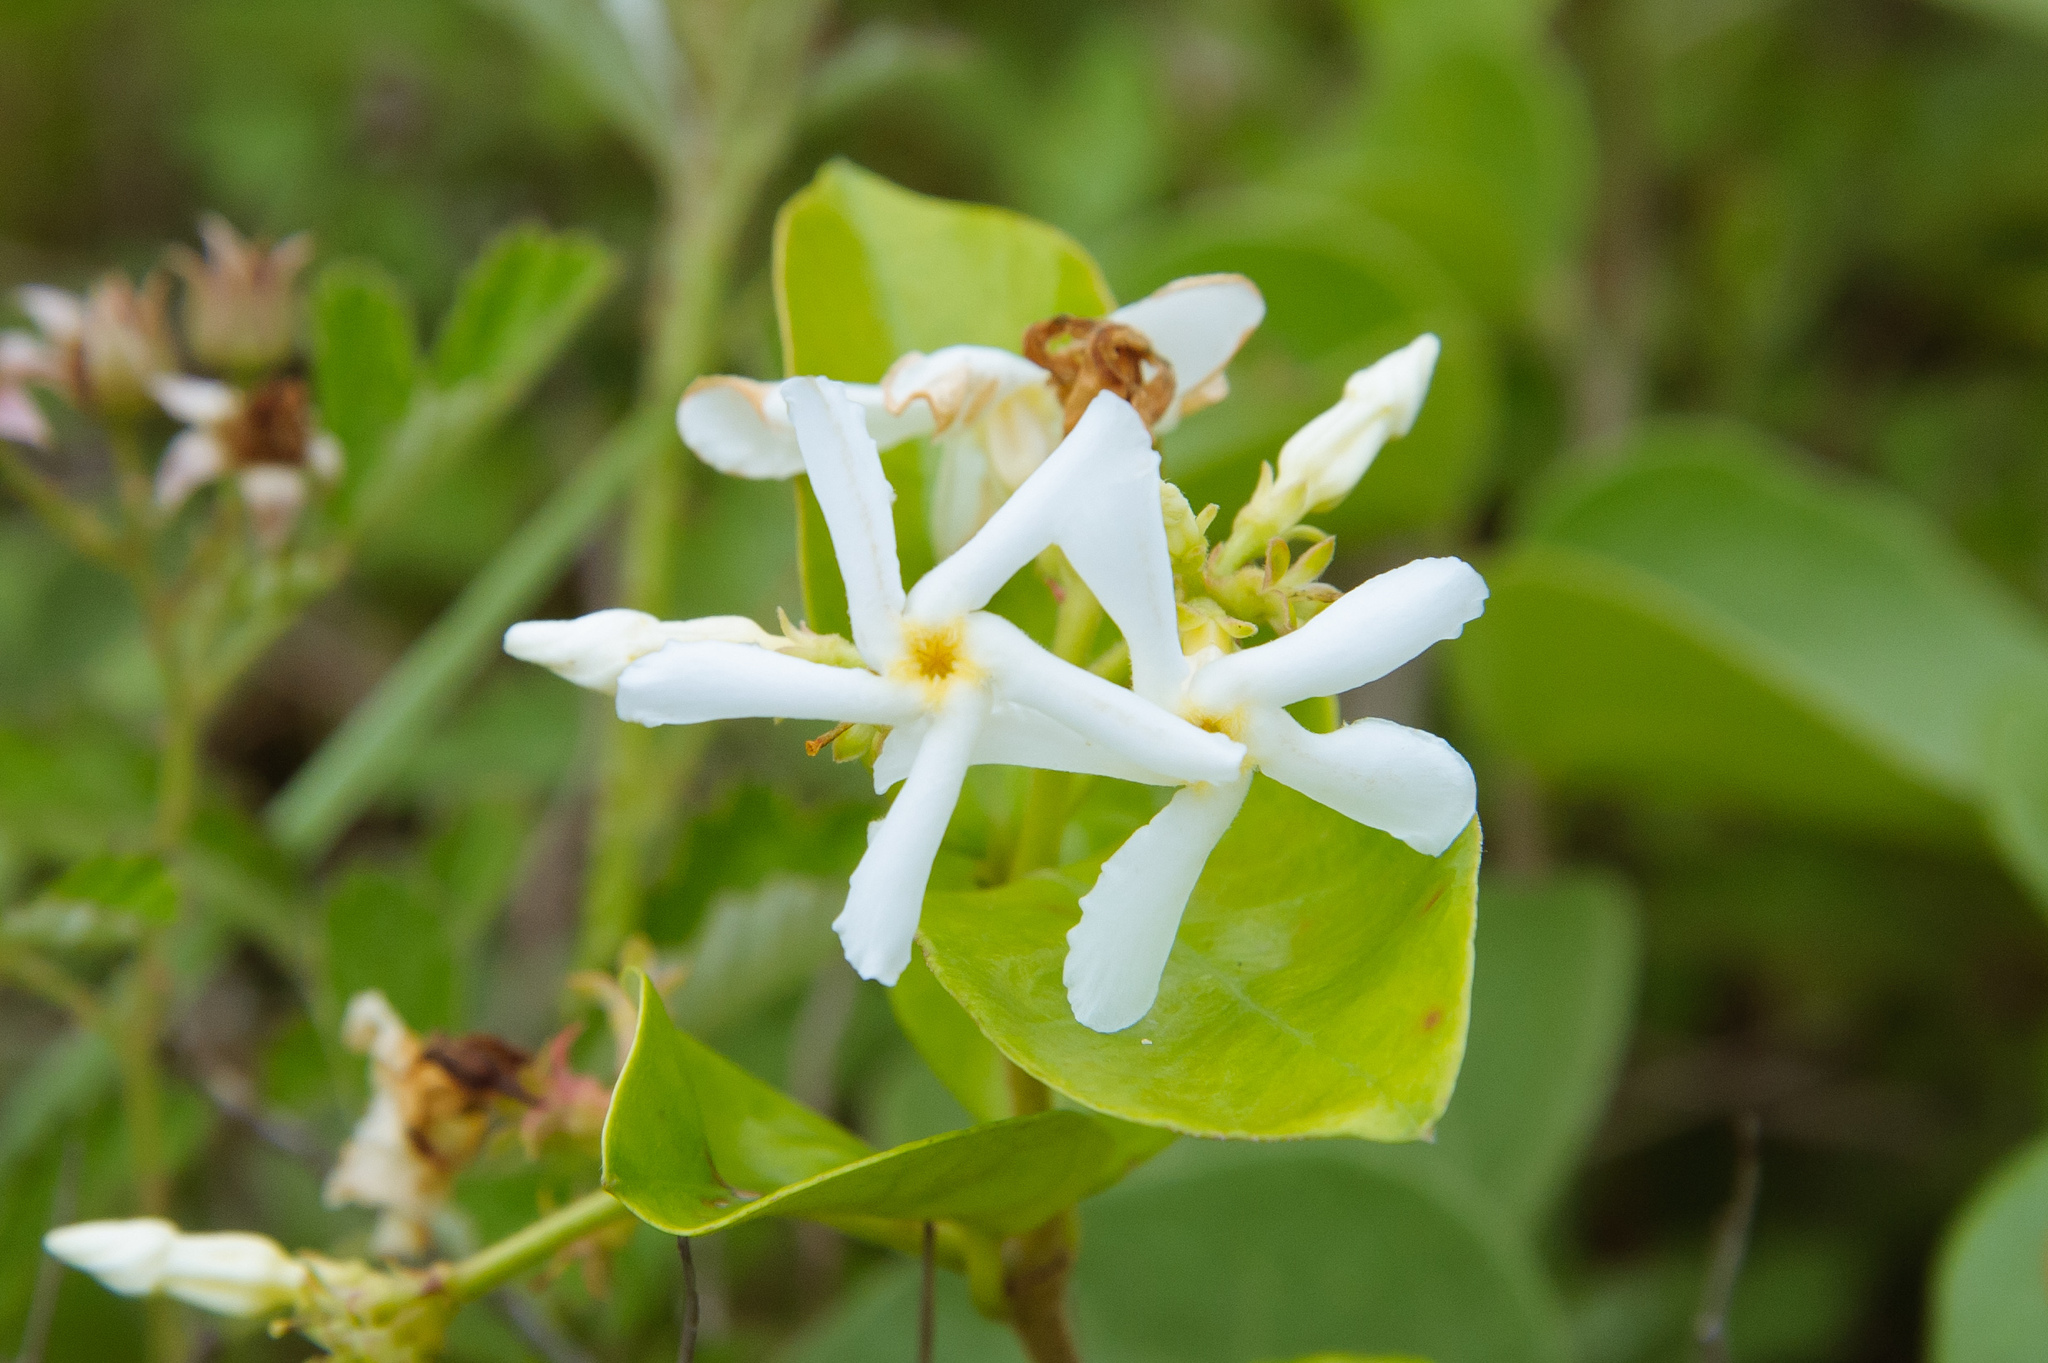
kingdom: Plantae
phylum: Tracheophyta
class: Magnoliopsida
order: Gentianales
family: Apocynaceae
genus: Trachelospermum
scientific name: Trachelospermum jasminoides
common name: Confederate jasmine
